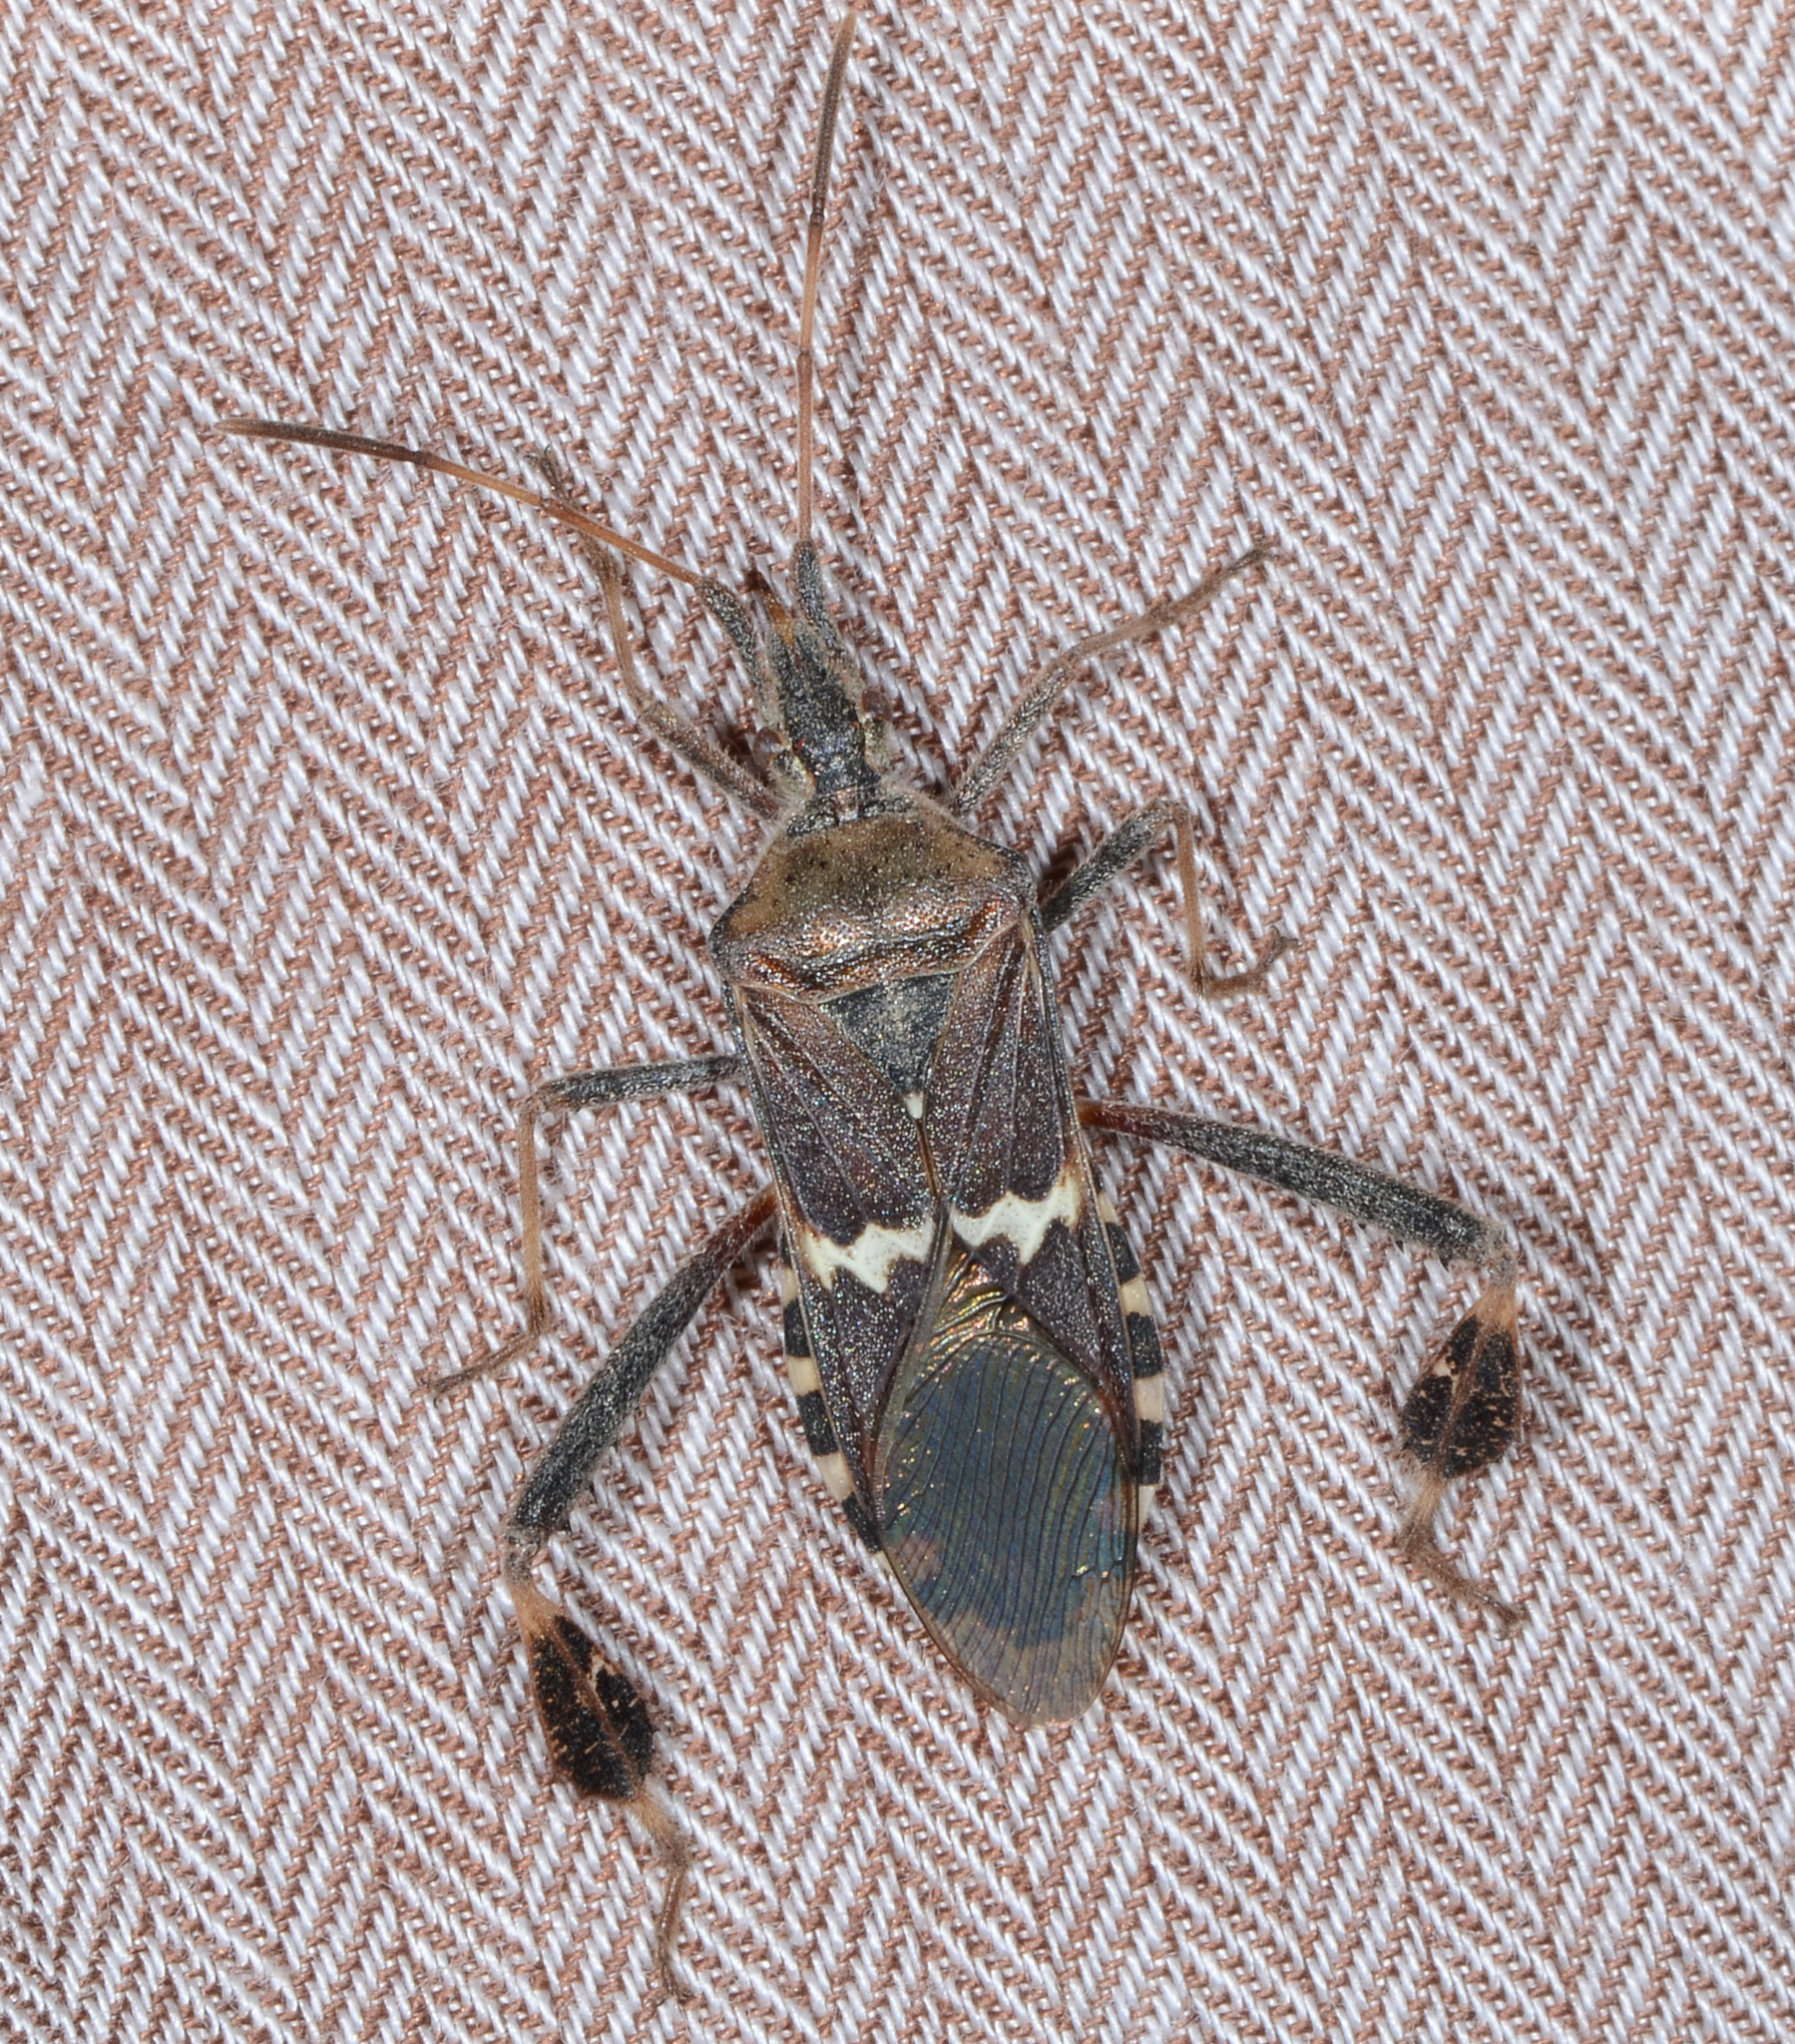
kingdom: Animalia
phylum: Arthropoda
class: Insecta
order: Hemiptera
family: Coreidae
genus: Leptoglossus
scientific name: Leptoglossus clypealis
